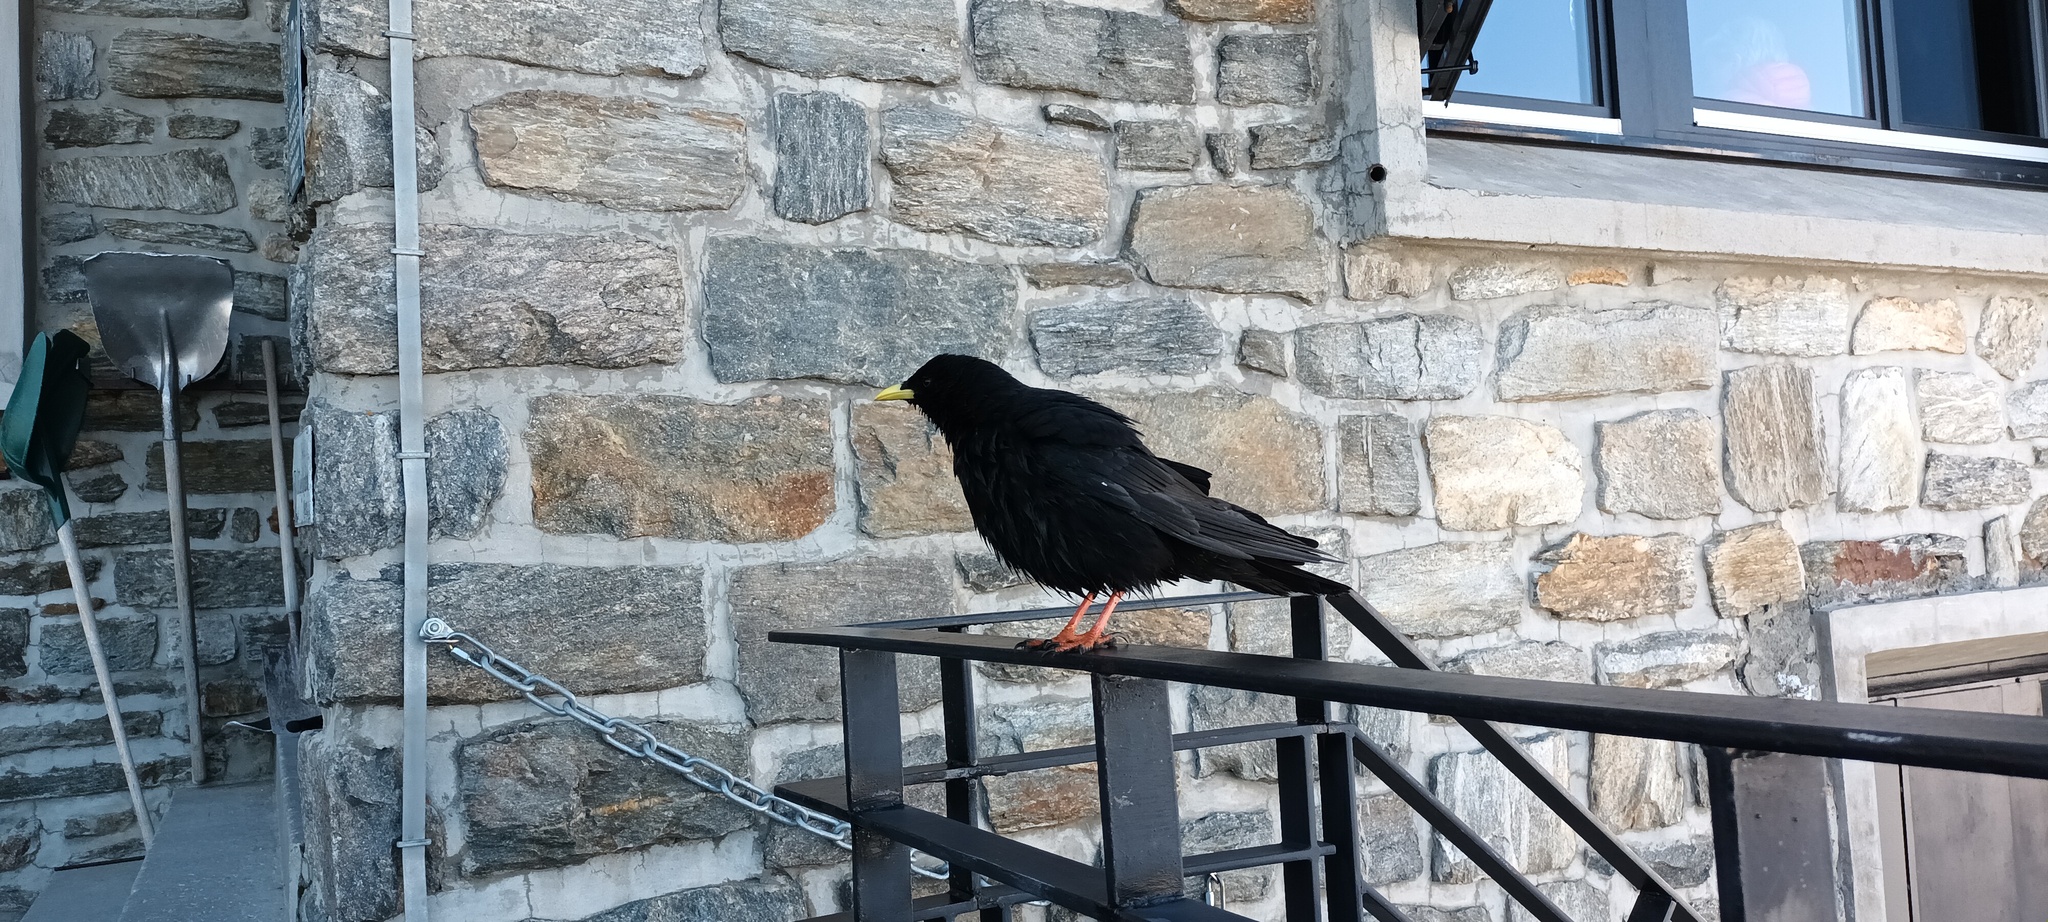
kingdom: Animalia
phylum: Chordata
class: Aves
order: Passeriformes
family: Corvidae
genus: Pyrrhocorax
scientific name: Pyrrhocorax graculus
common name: Alpine chough
